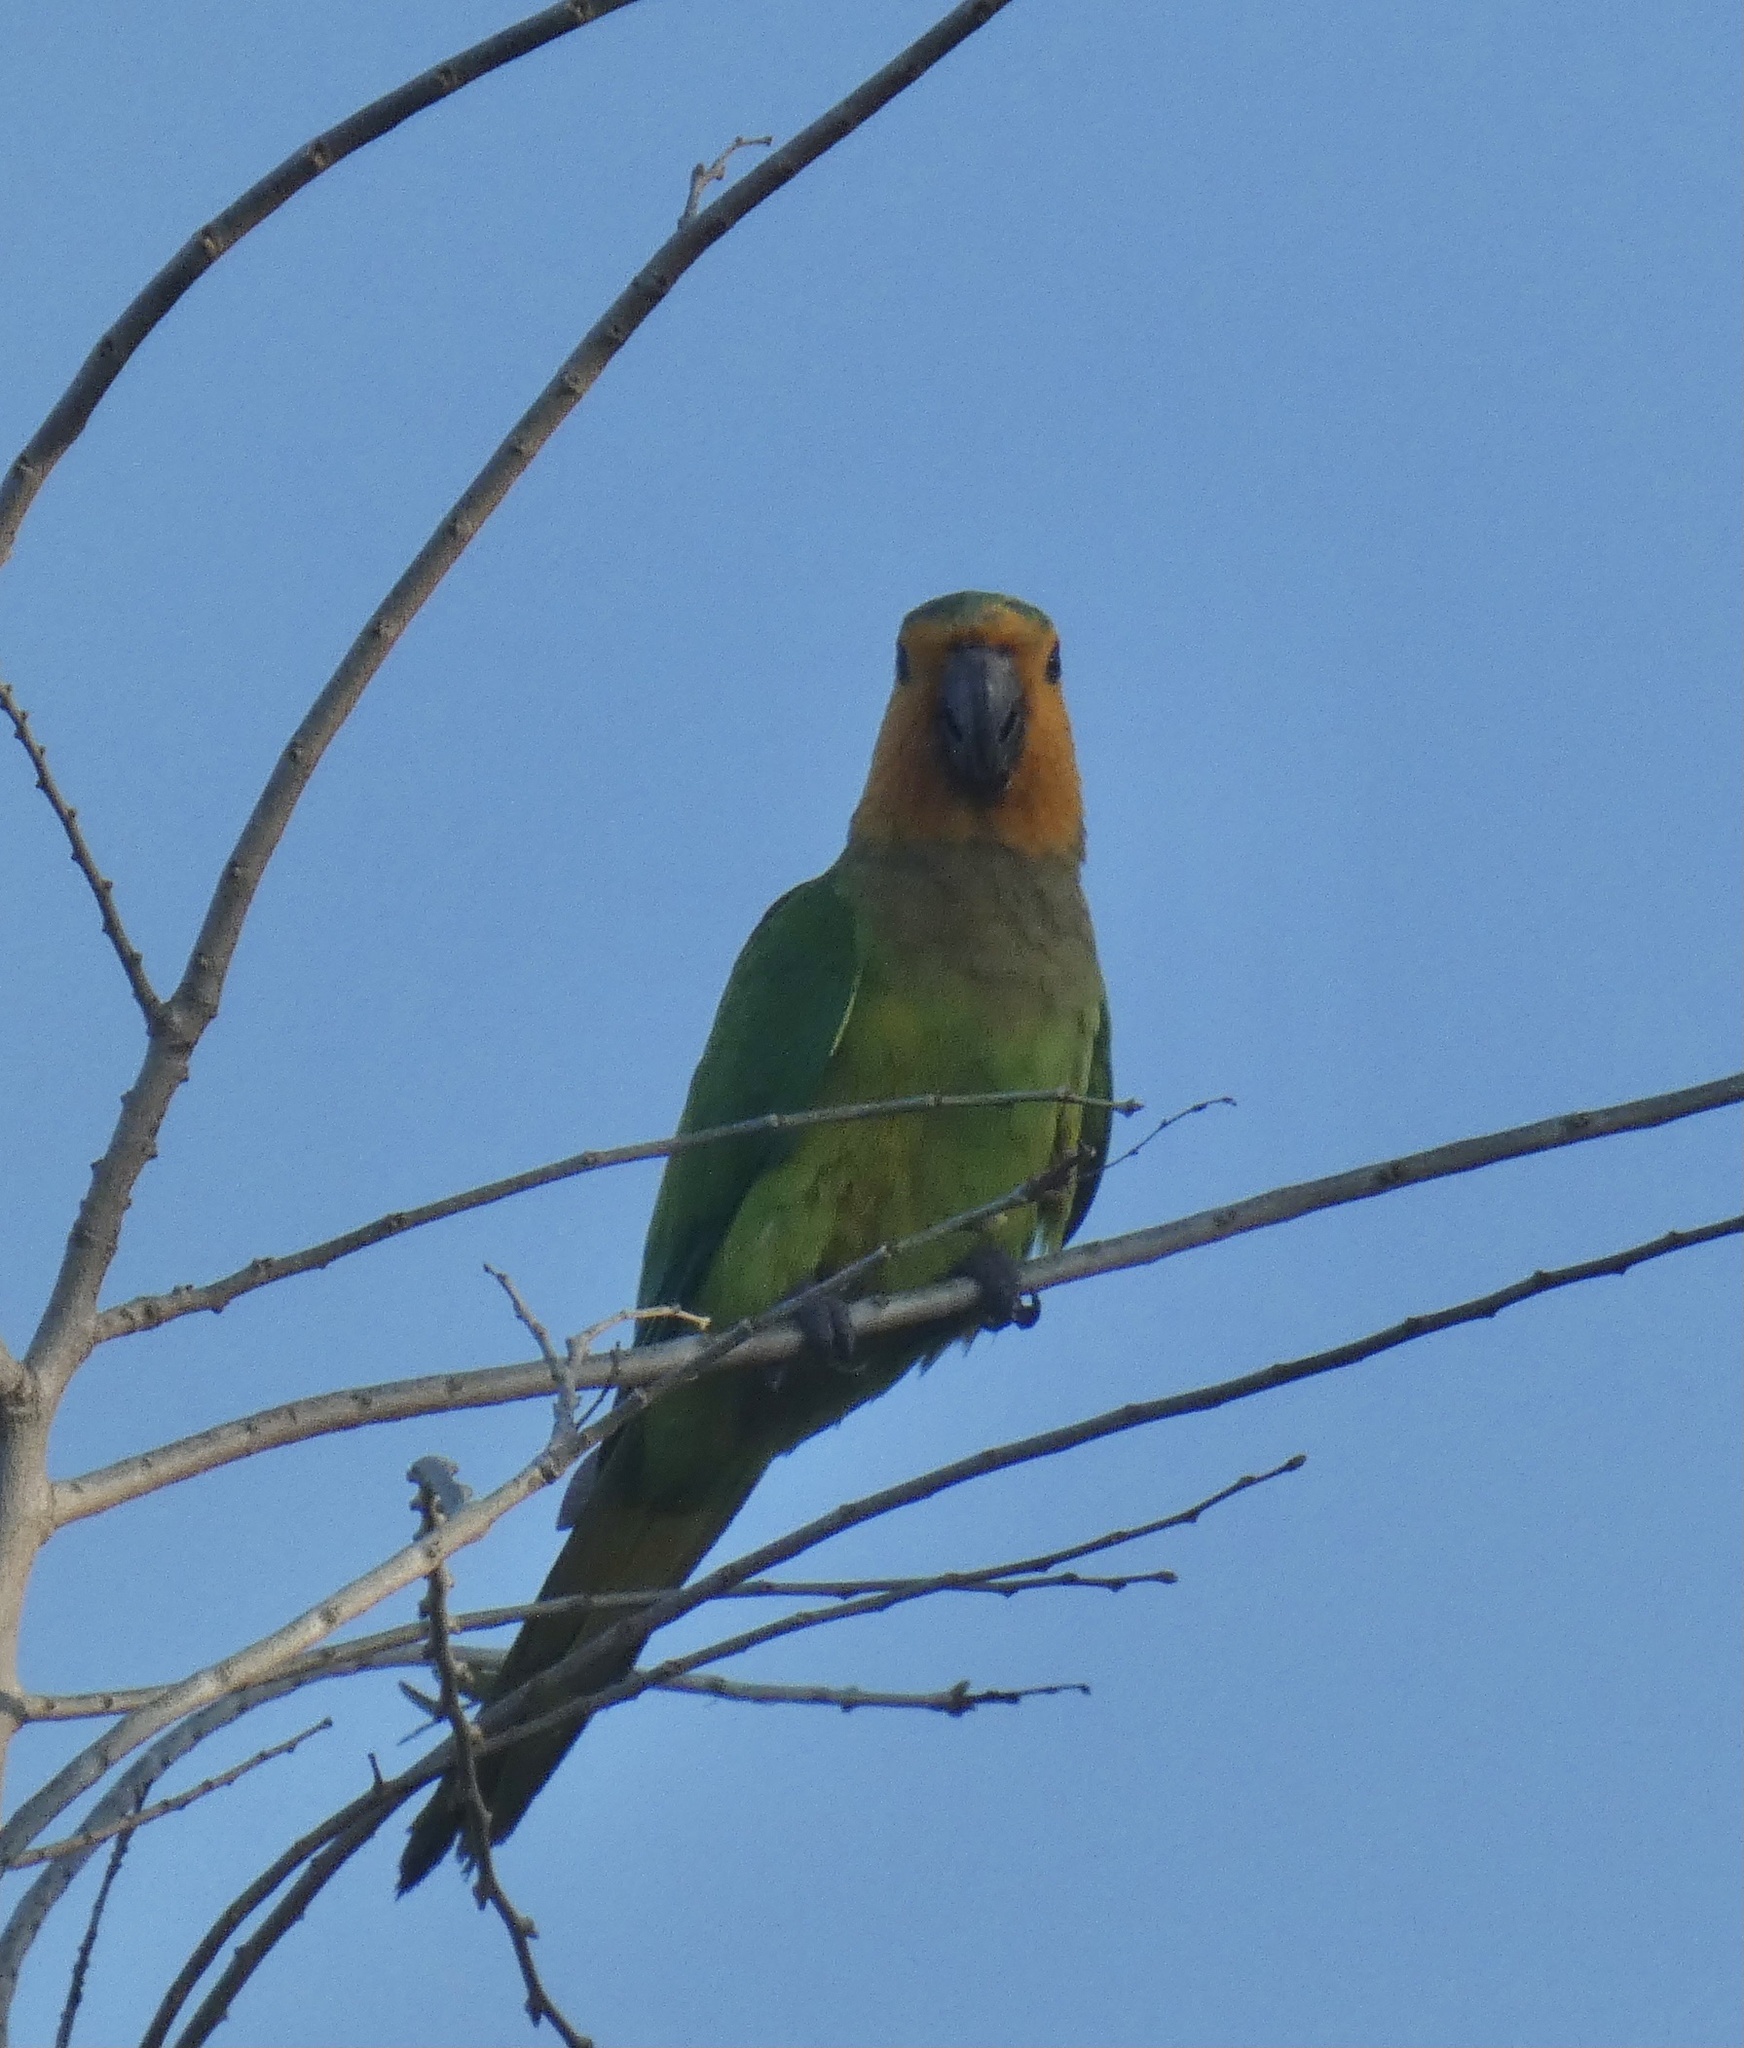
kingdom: Animalia
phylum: Chordata
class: Aves
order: Psittaciformes
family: Psittacidae
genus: Aratinga
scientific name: Aratinga pertinax
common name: Brown-throated parakeet
